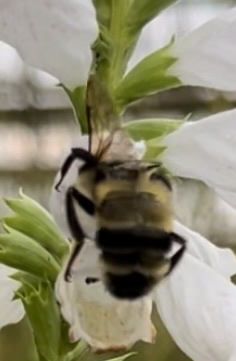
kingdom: Animalia
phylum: Arthropoda
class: Insecta
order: Hymenoptera
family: Apidae
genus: Bombus
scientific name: Bombus bimaculatus
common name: Two-spotted bumble bee
